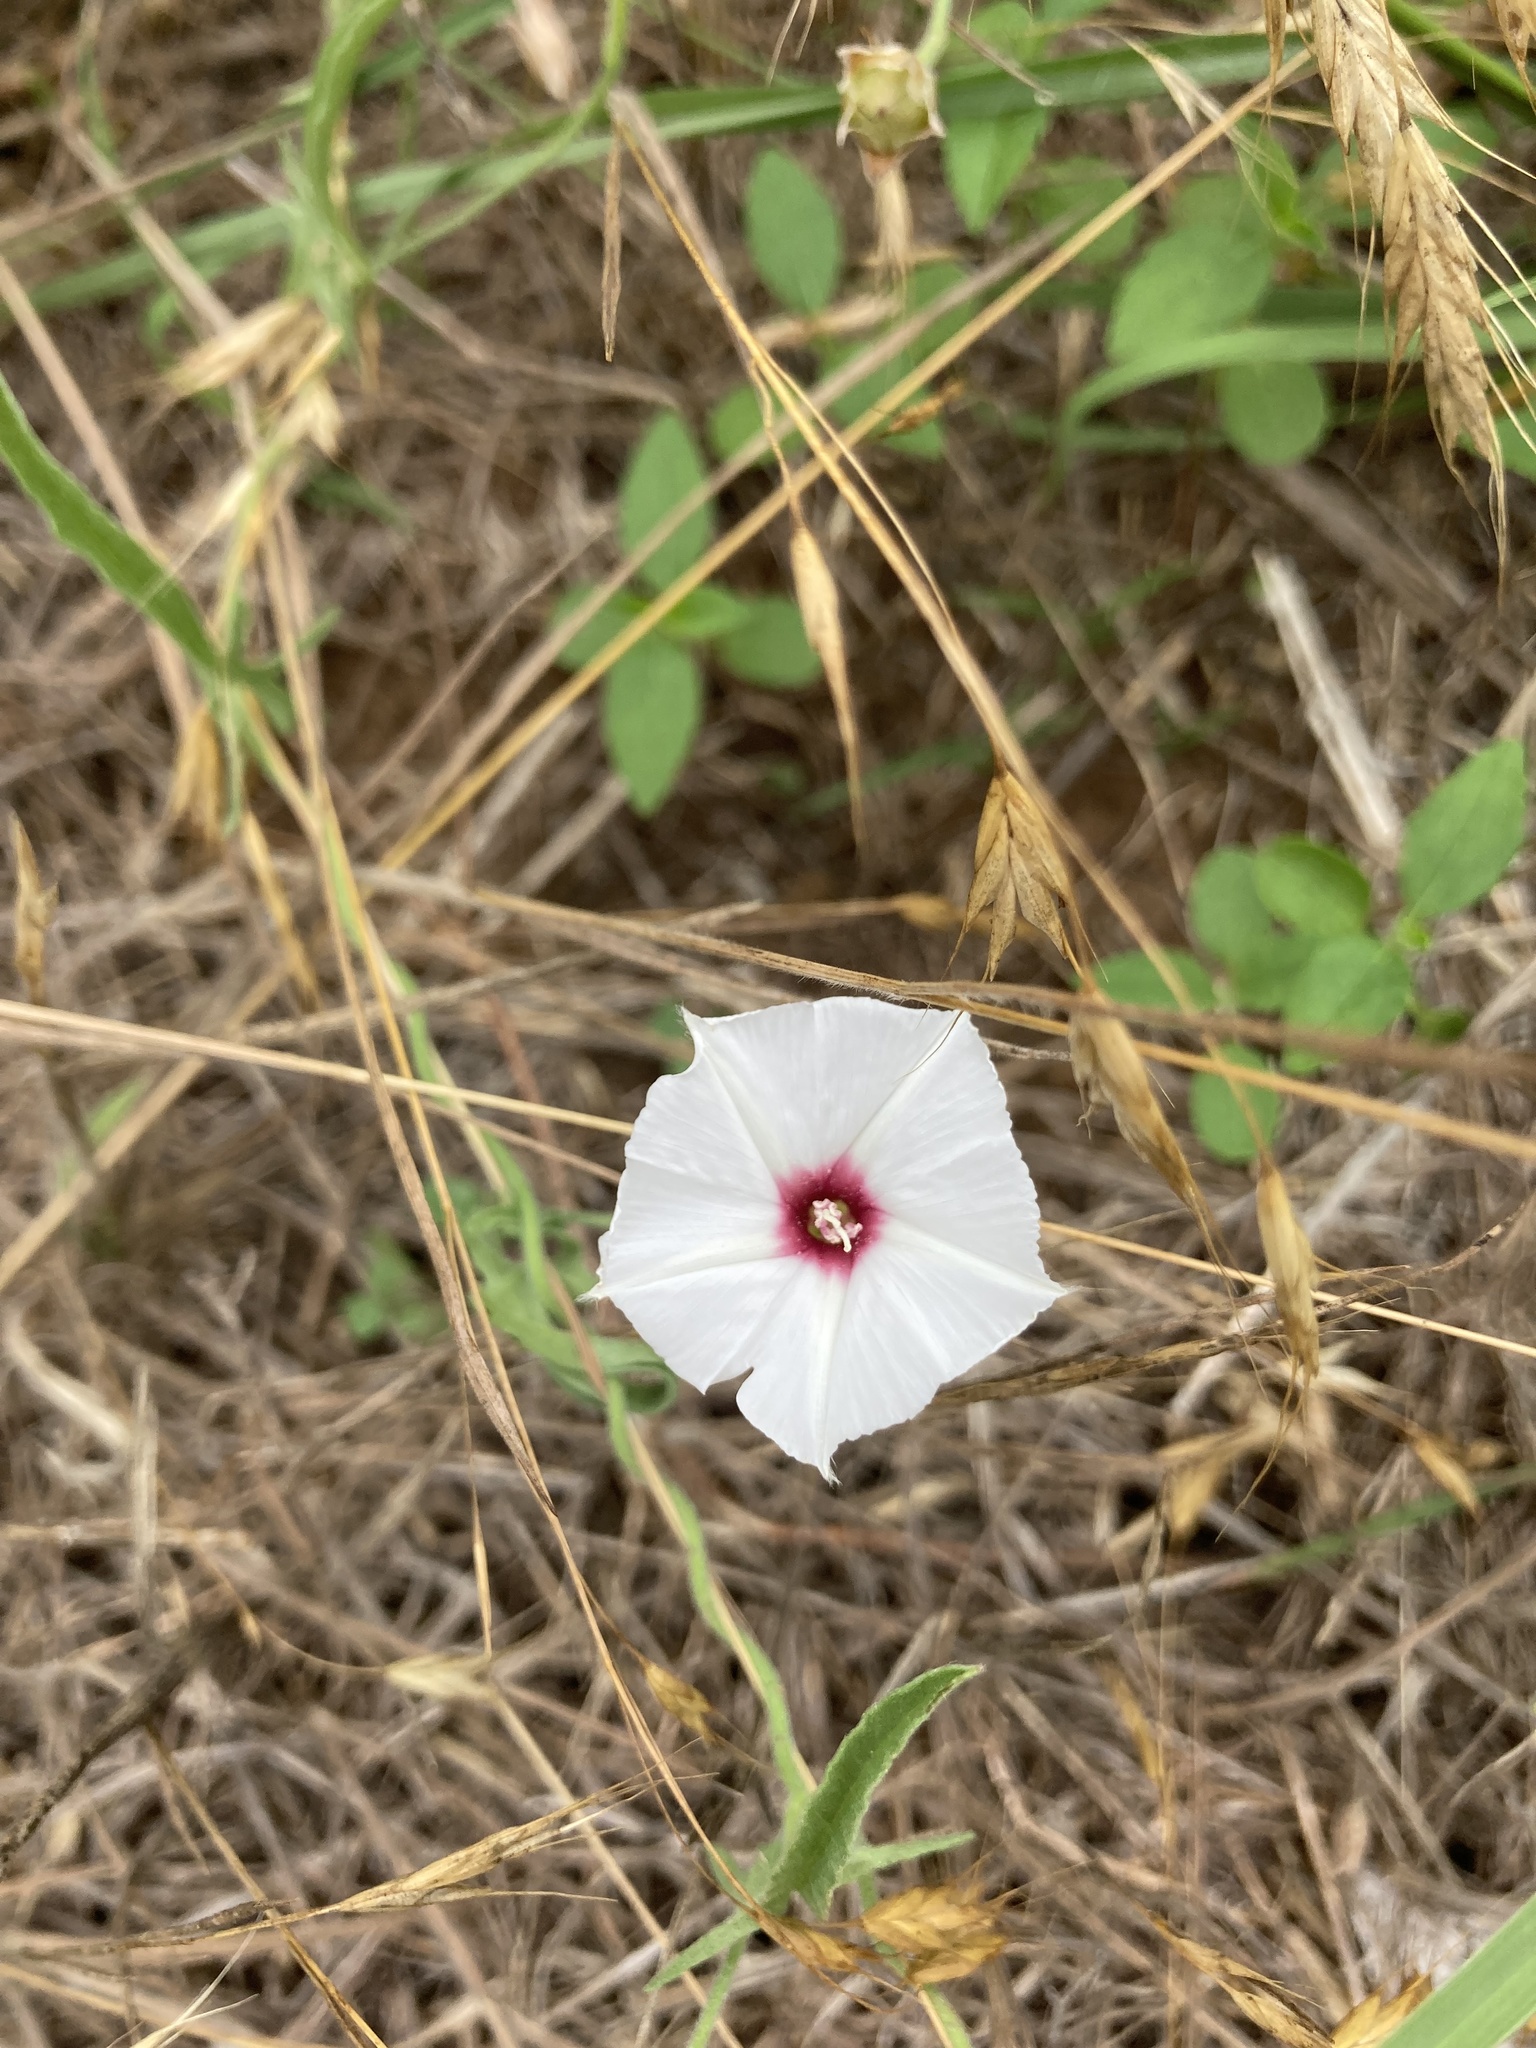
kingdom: Plantae
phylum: Tracheophyta
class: Magnoliopsida
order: Solanales
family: Convolvulaceae
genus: Convolvulus
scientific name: Convolvulus equitans
